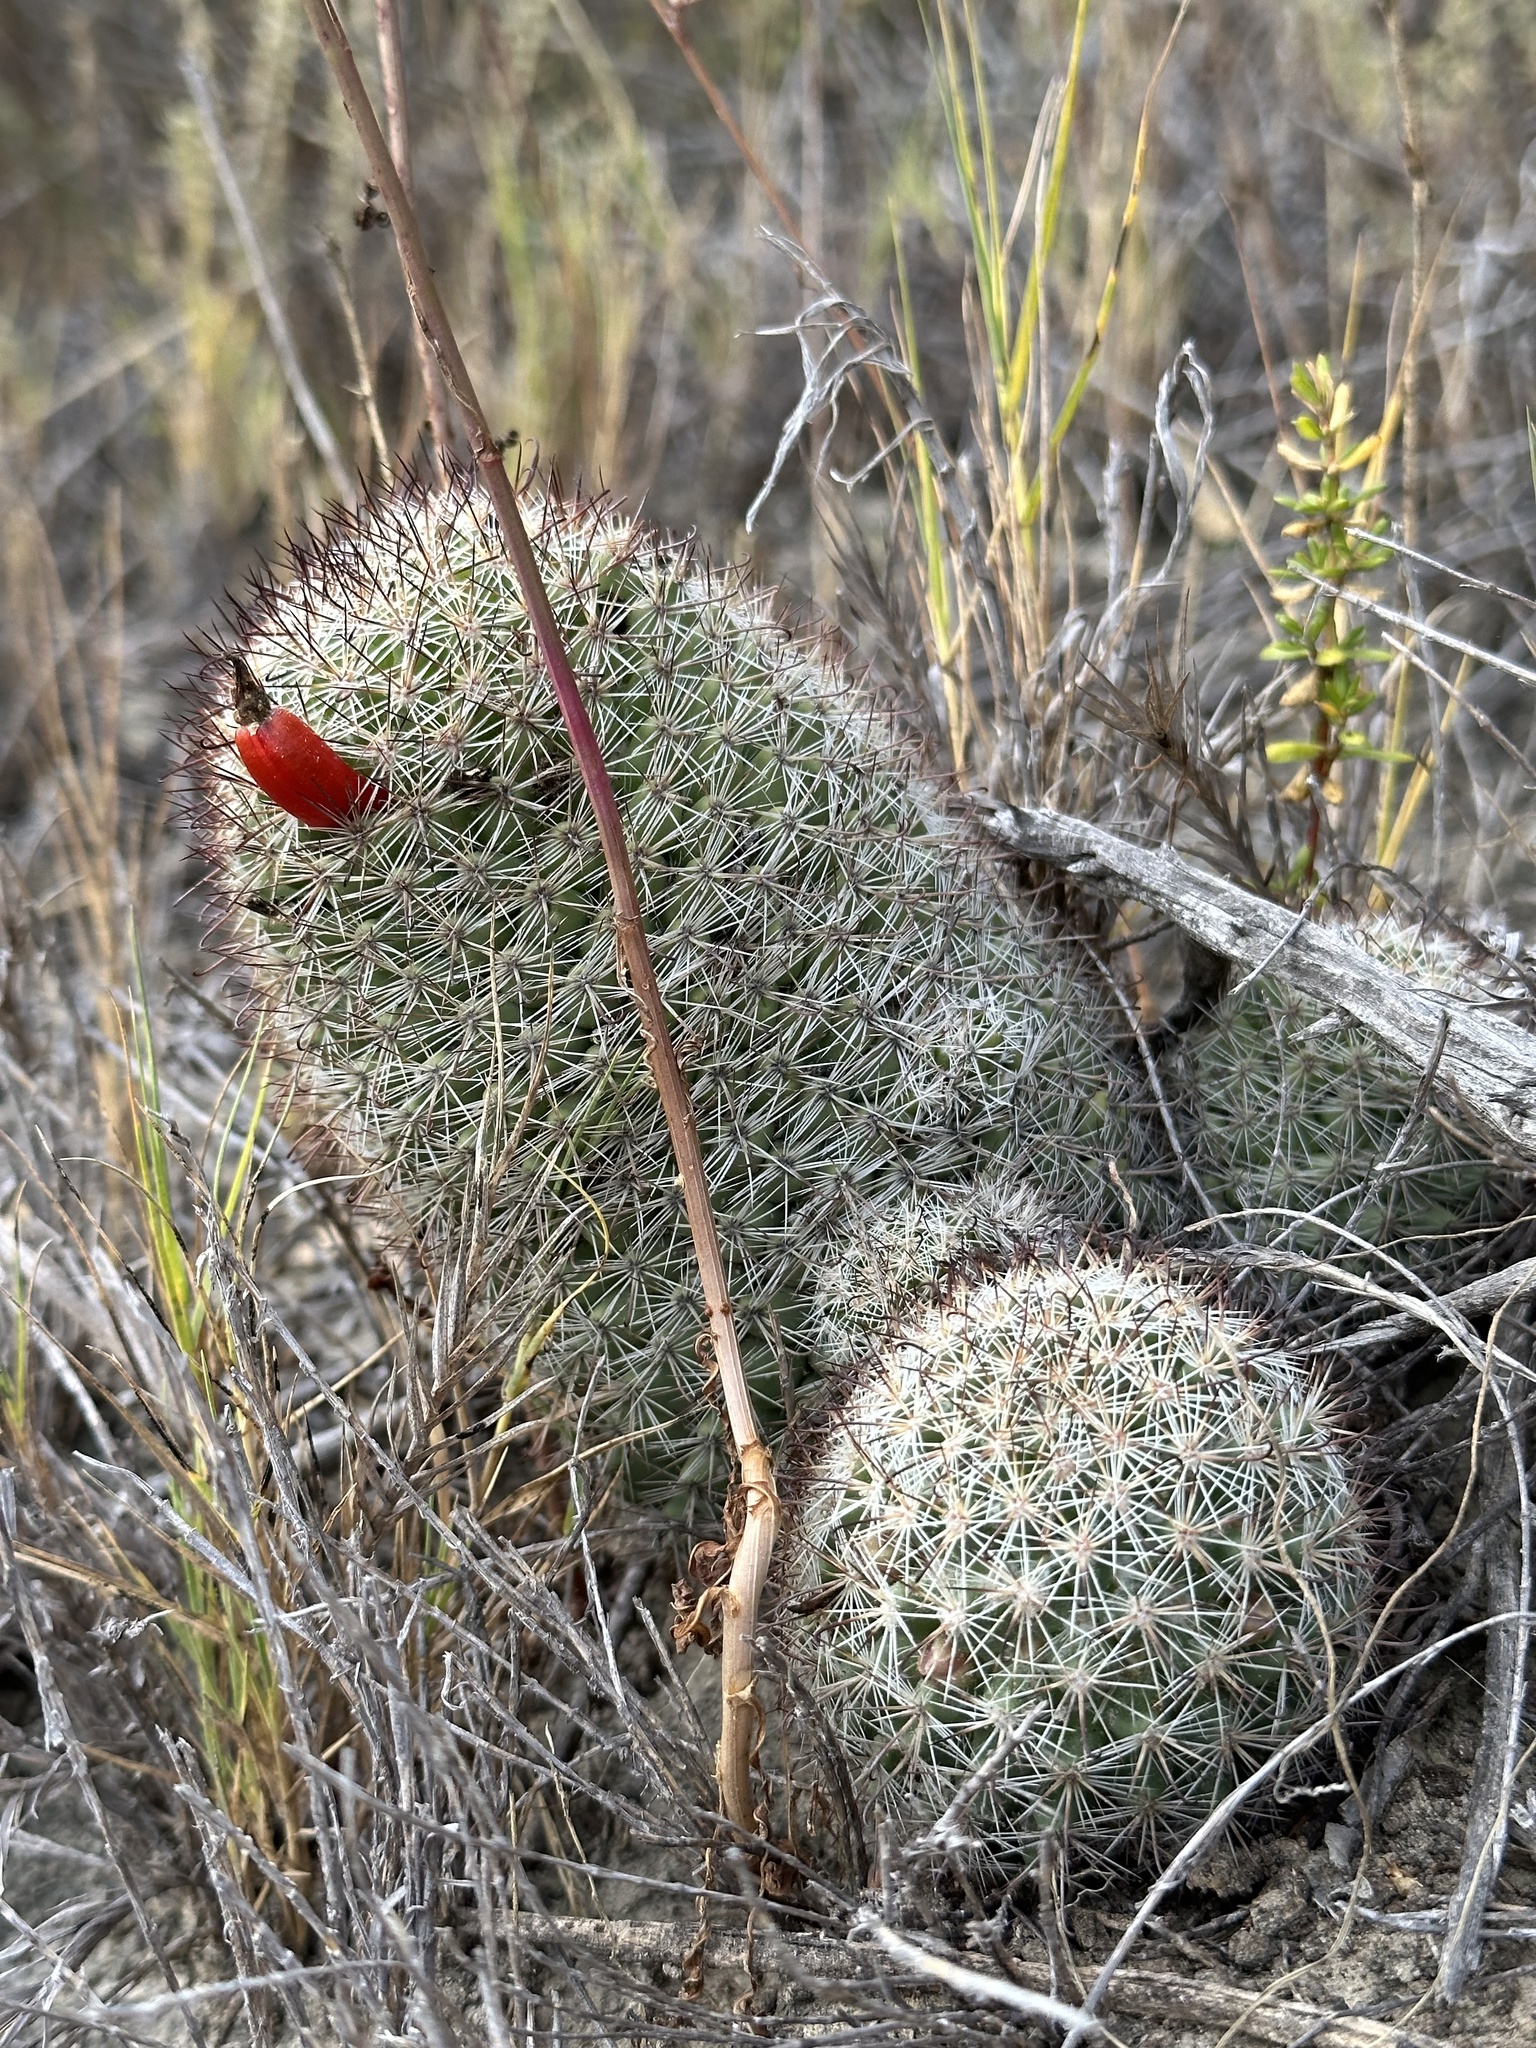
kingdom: Plantae
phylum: Tracheophyta
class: Magnoliopsida
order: Caryophyllales
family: Cactaceae
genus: Cochemiea
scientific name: Cochemiea dioica
